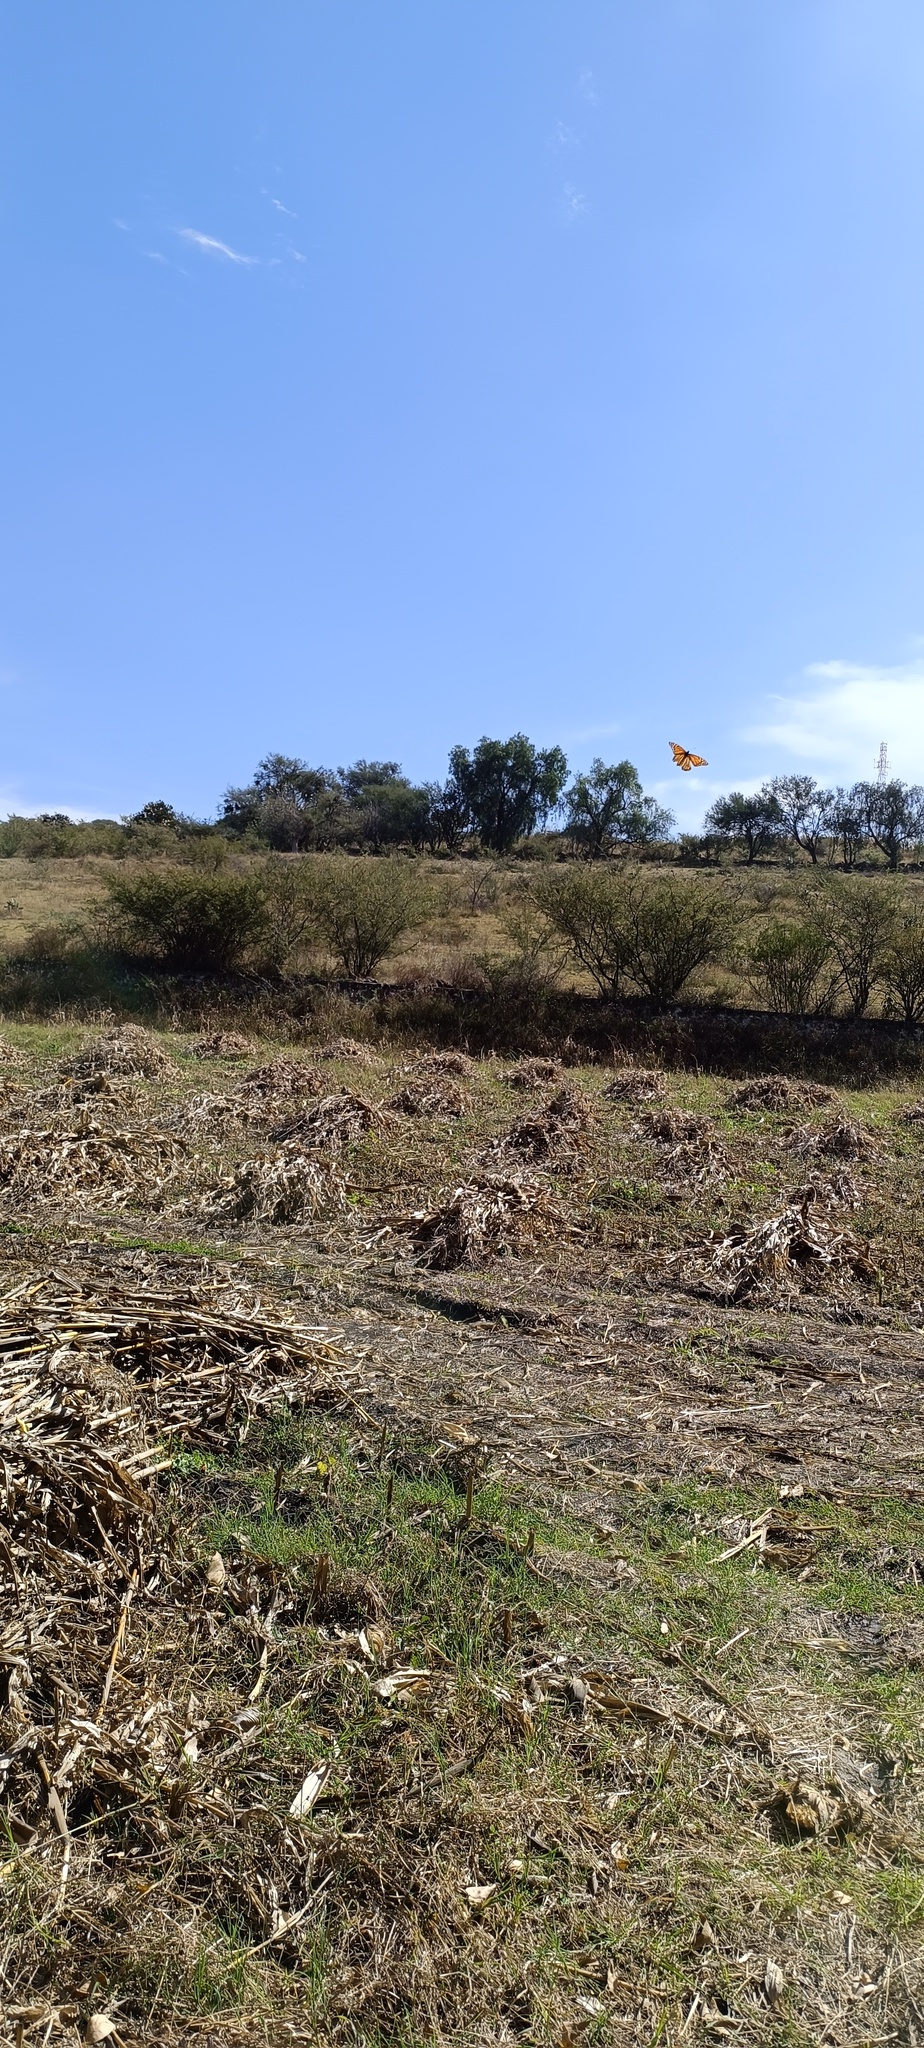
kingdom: Animalia
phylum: Arthropoda
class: Insecta
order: Lepidoptera
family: Nymphalidae
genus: Danaus
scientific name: Danaus plexippus
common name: Monarch
